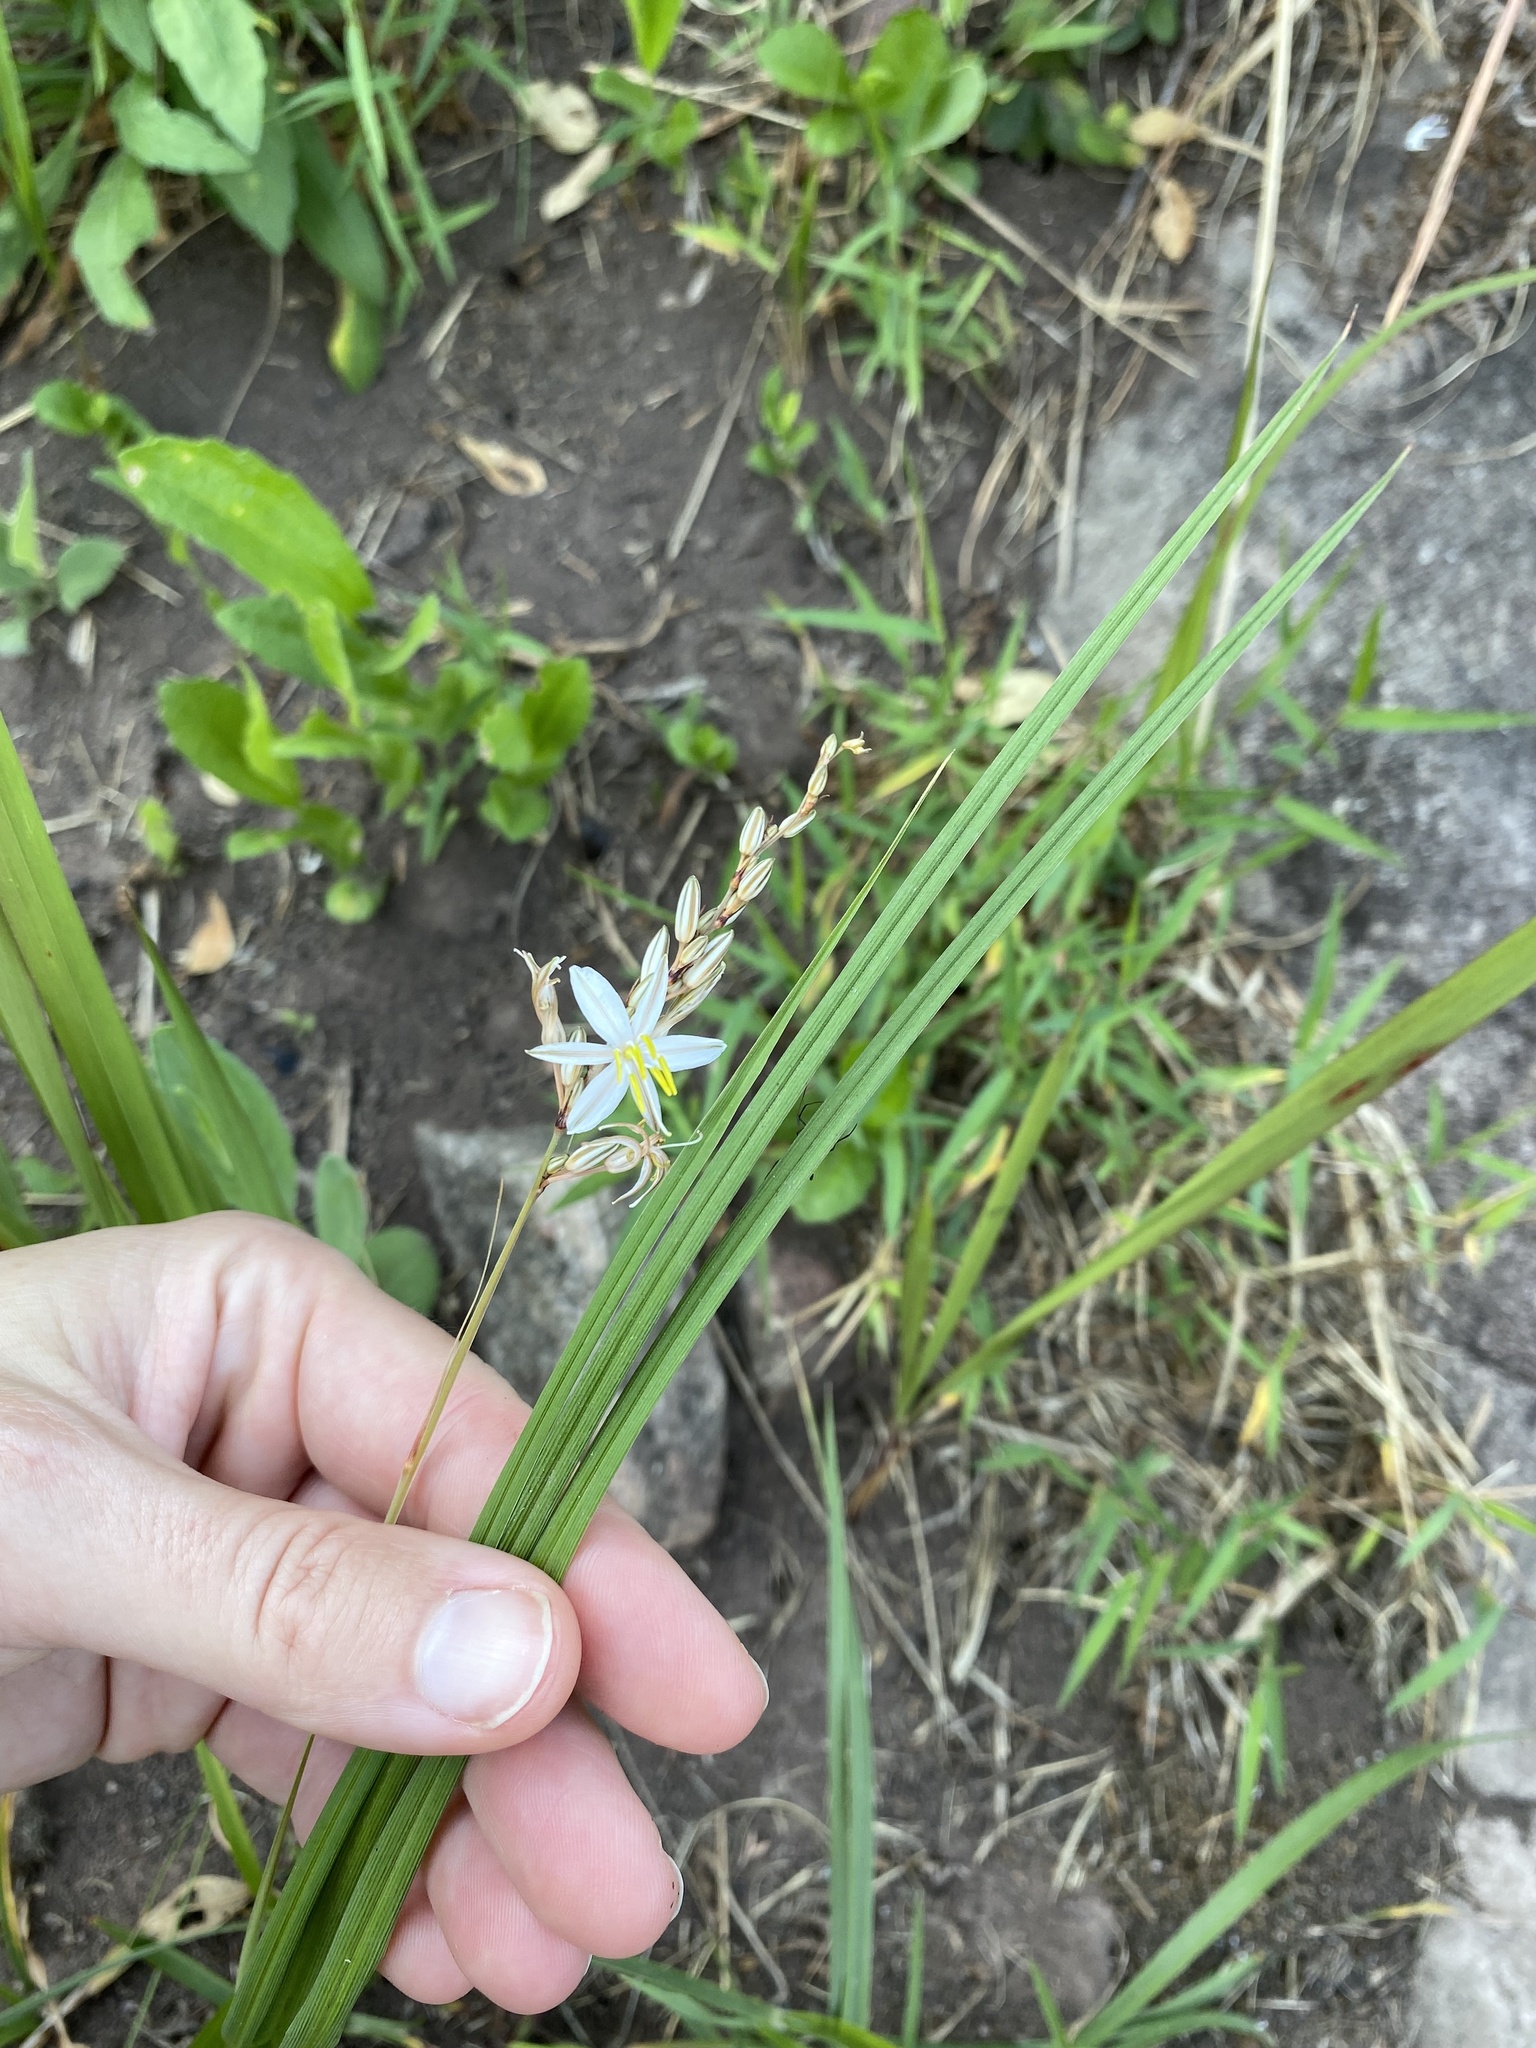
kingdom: Plantae
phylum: Tracheophyta
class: Liliopsida
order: Asparagales
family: Asparagaceae
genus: Chlorophytum
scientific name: Chlorophytum saundersiae
